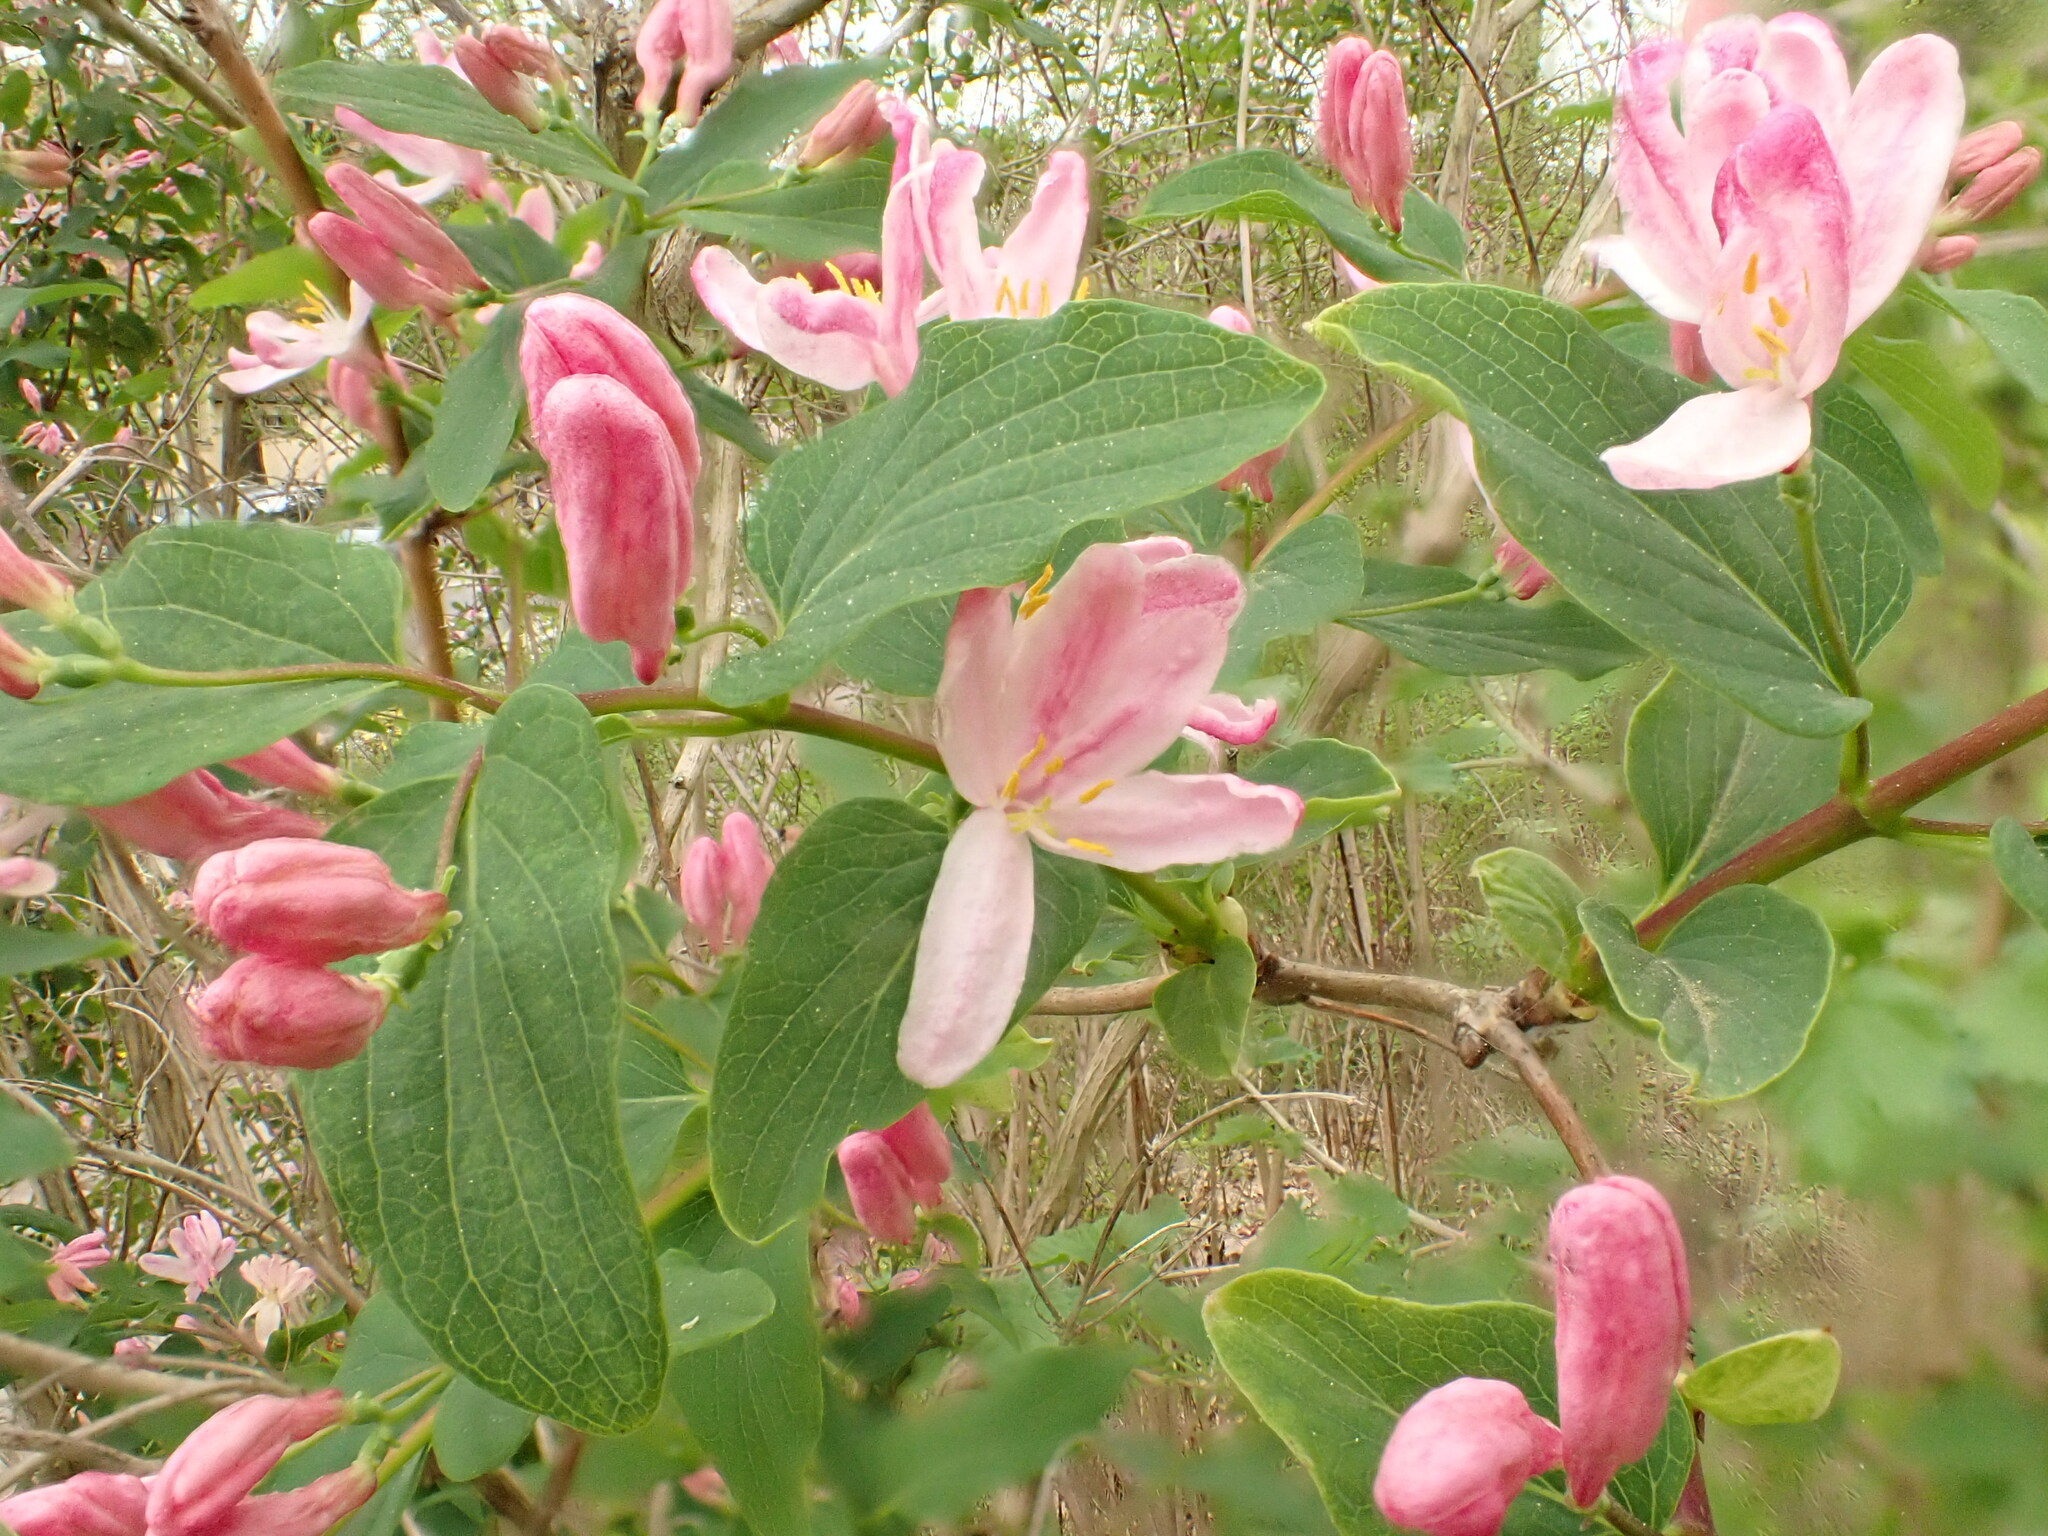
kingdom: Plantae
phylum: Tracheophyta
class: Magnoliopsida
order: Dipsacales
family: Caprifoliaceae
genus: Lonicera
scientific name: Lonicera tatarica
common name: Tatarian honeysuckle
